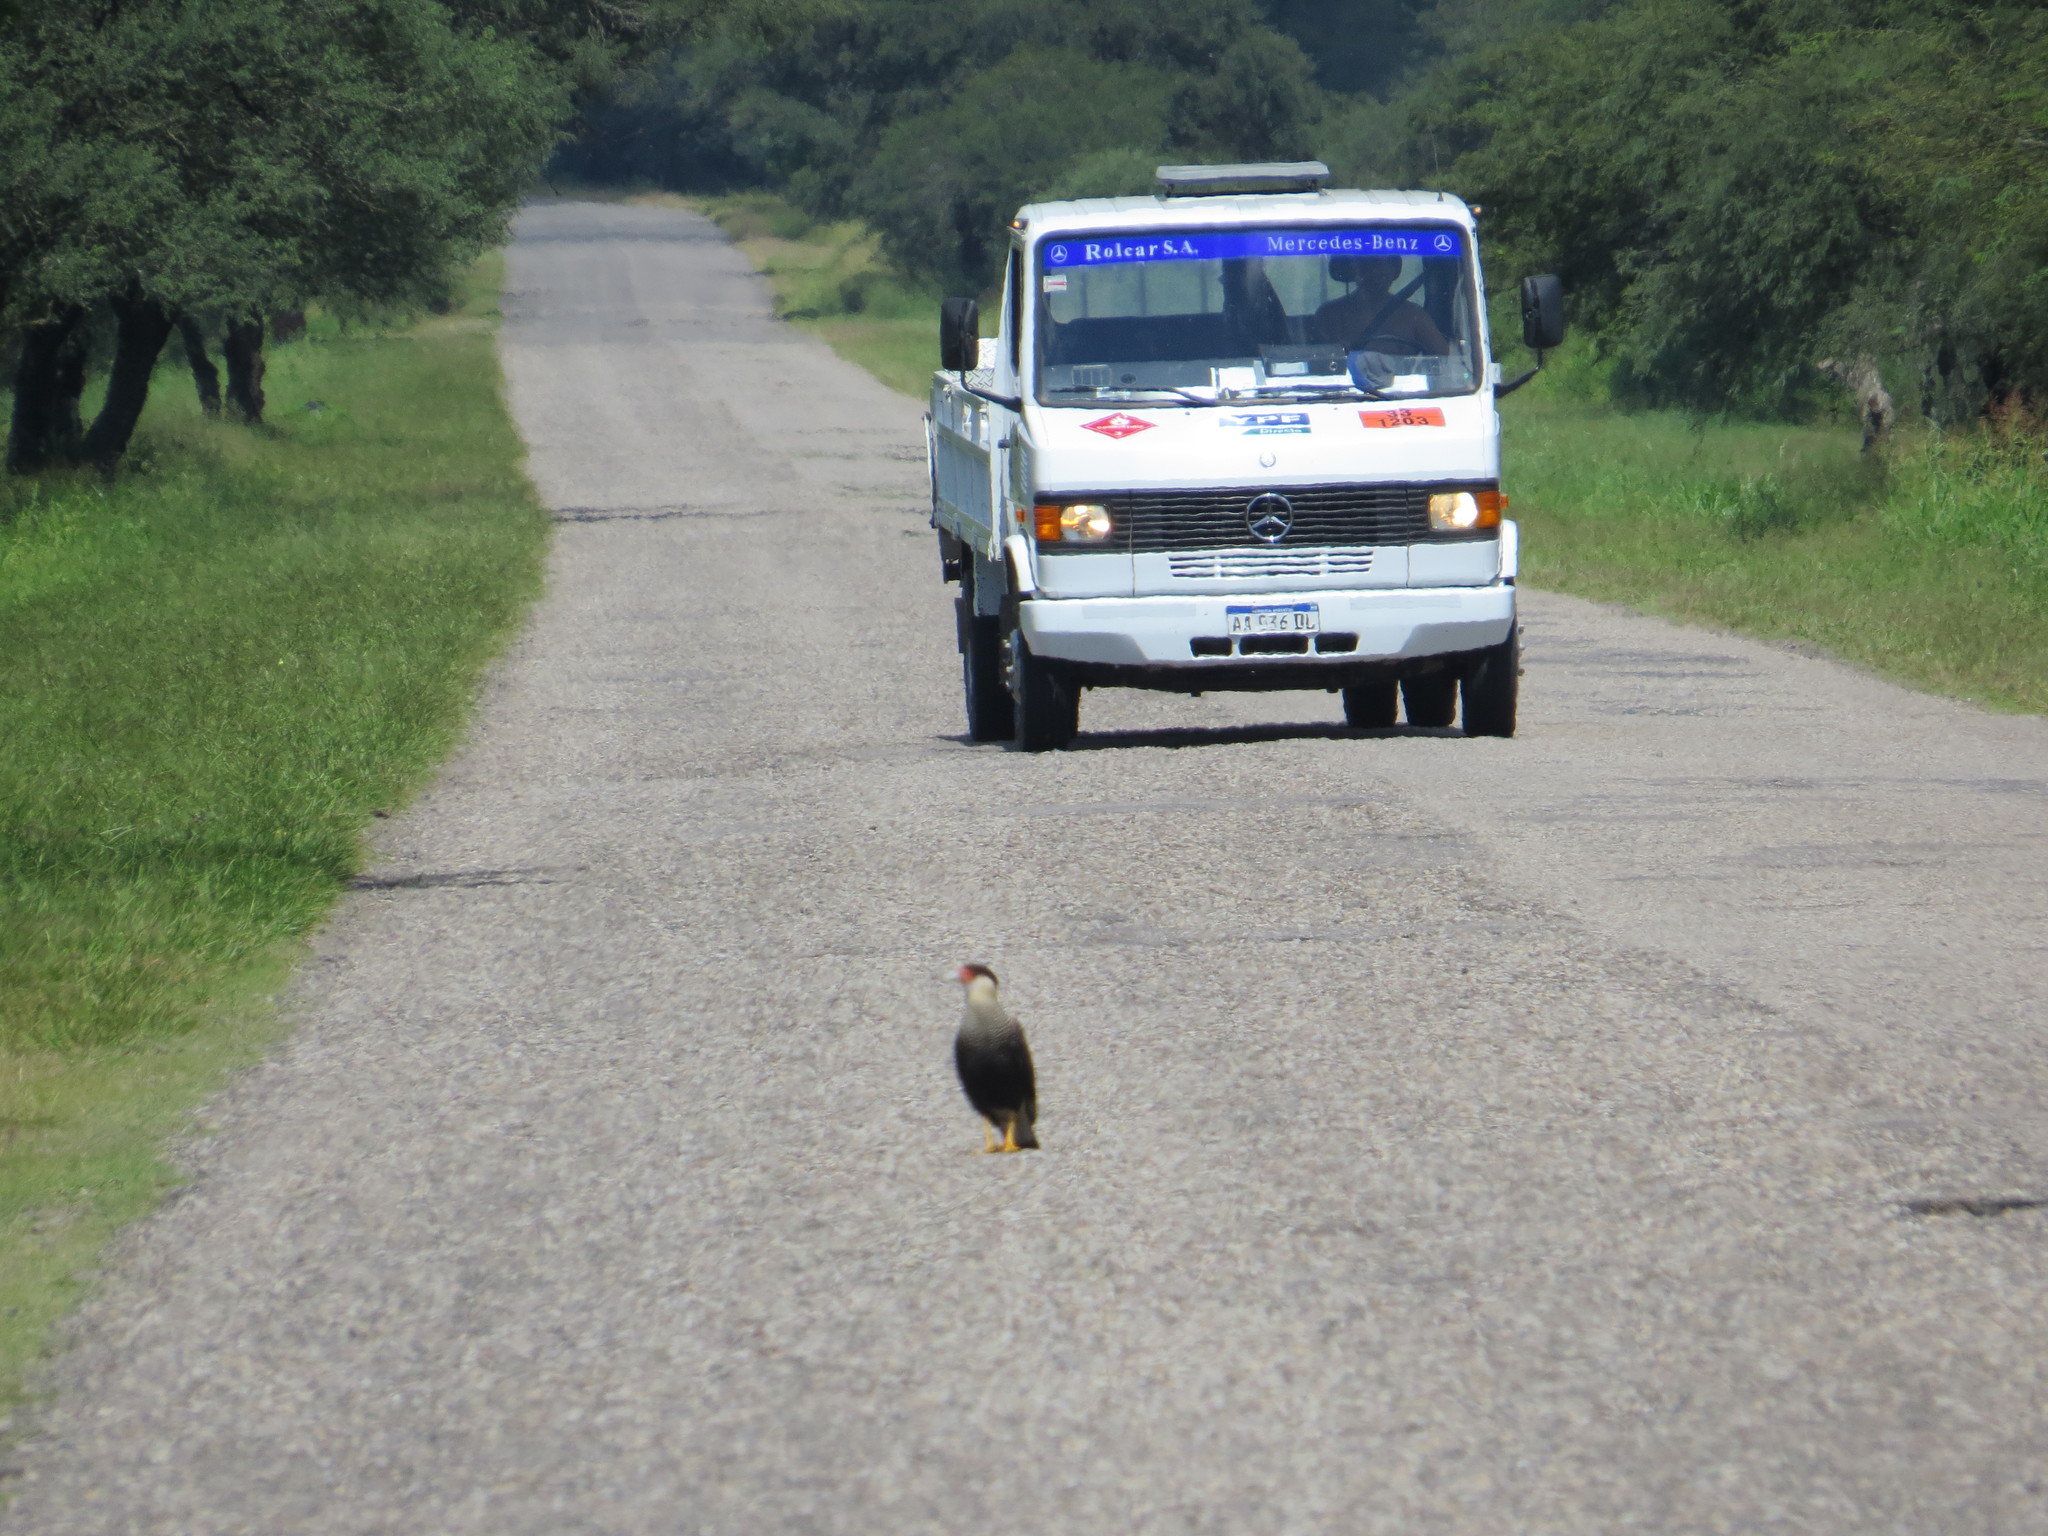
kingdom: Animalia
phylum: Chordata
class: Aves
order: Falconiformes
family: Falconidae
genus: Caracara
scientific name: Caracara plancus
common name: Southern caracara
